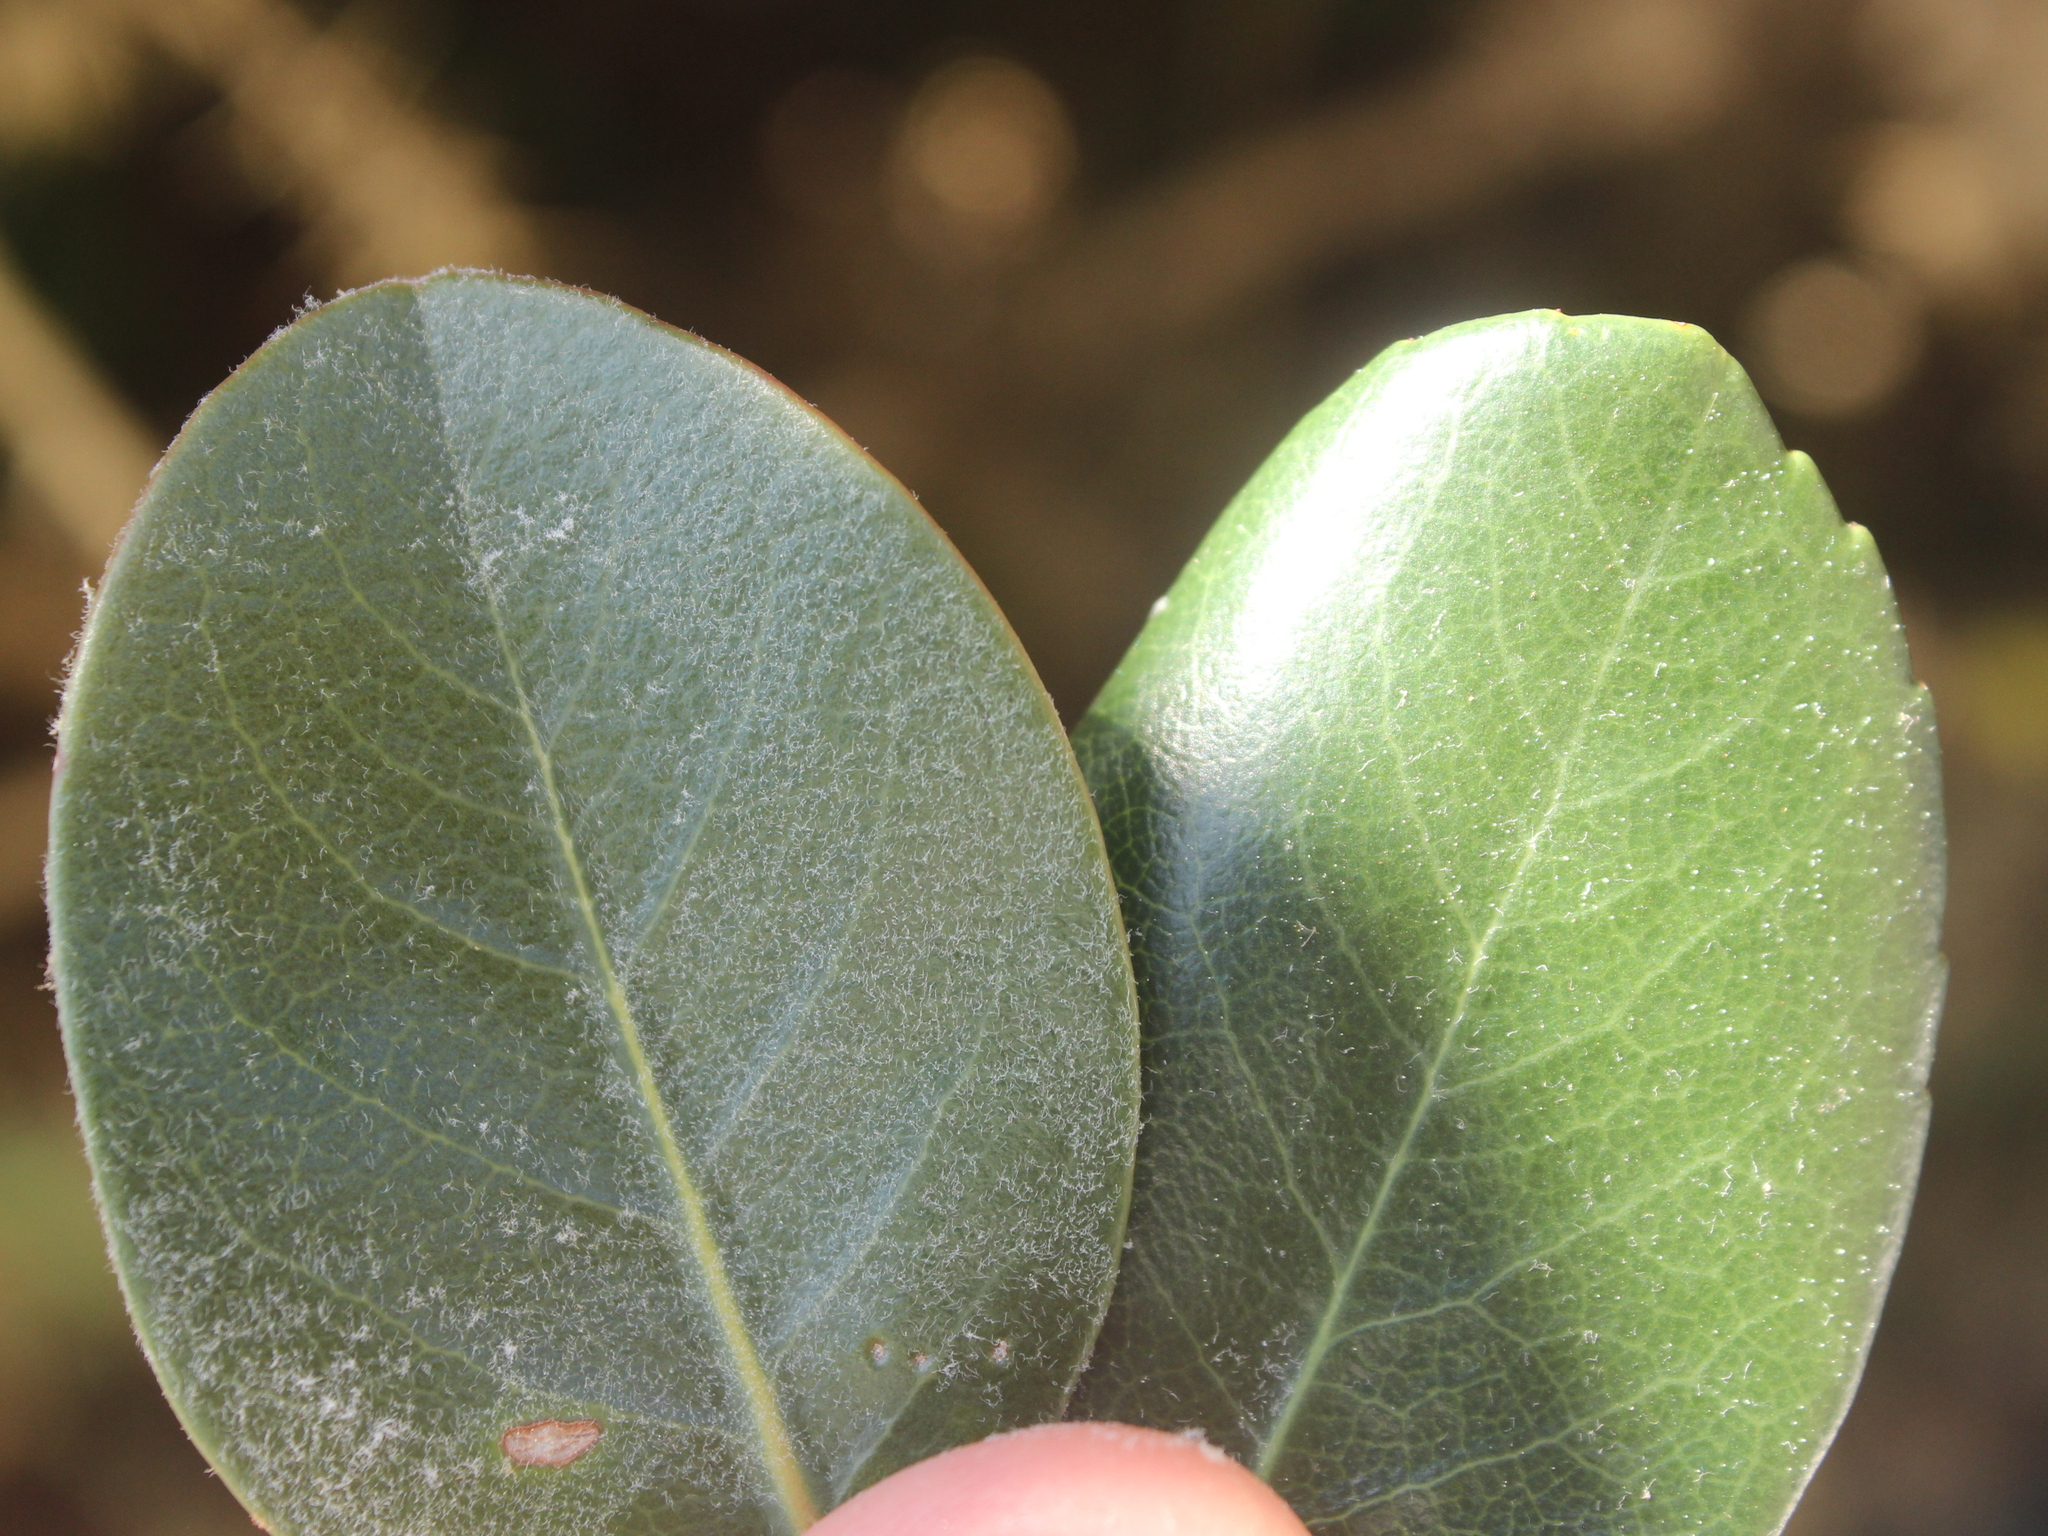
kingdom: Plantae
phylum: Tracheophyta
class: Magnoliopsida
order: Rosales
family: Rosaceae
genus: Rhaphiolepis
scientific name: Rhaphiolepis umbellata
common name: Yedda-hawthorn
